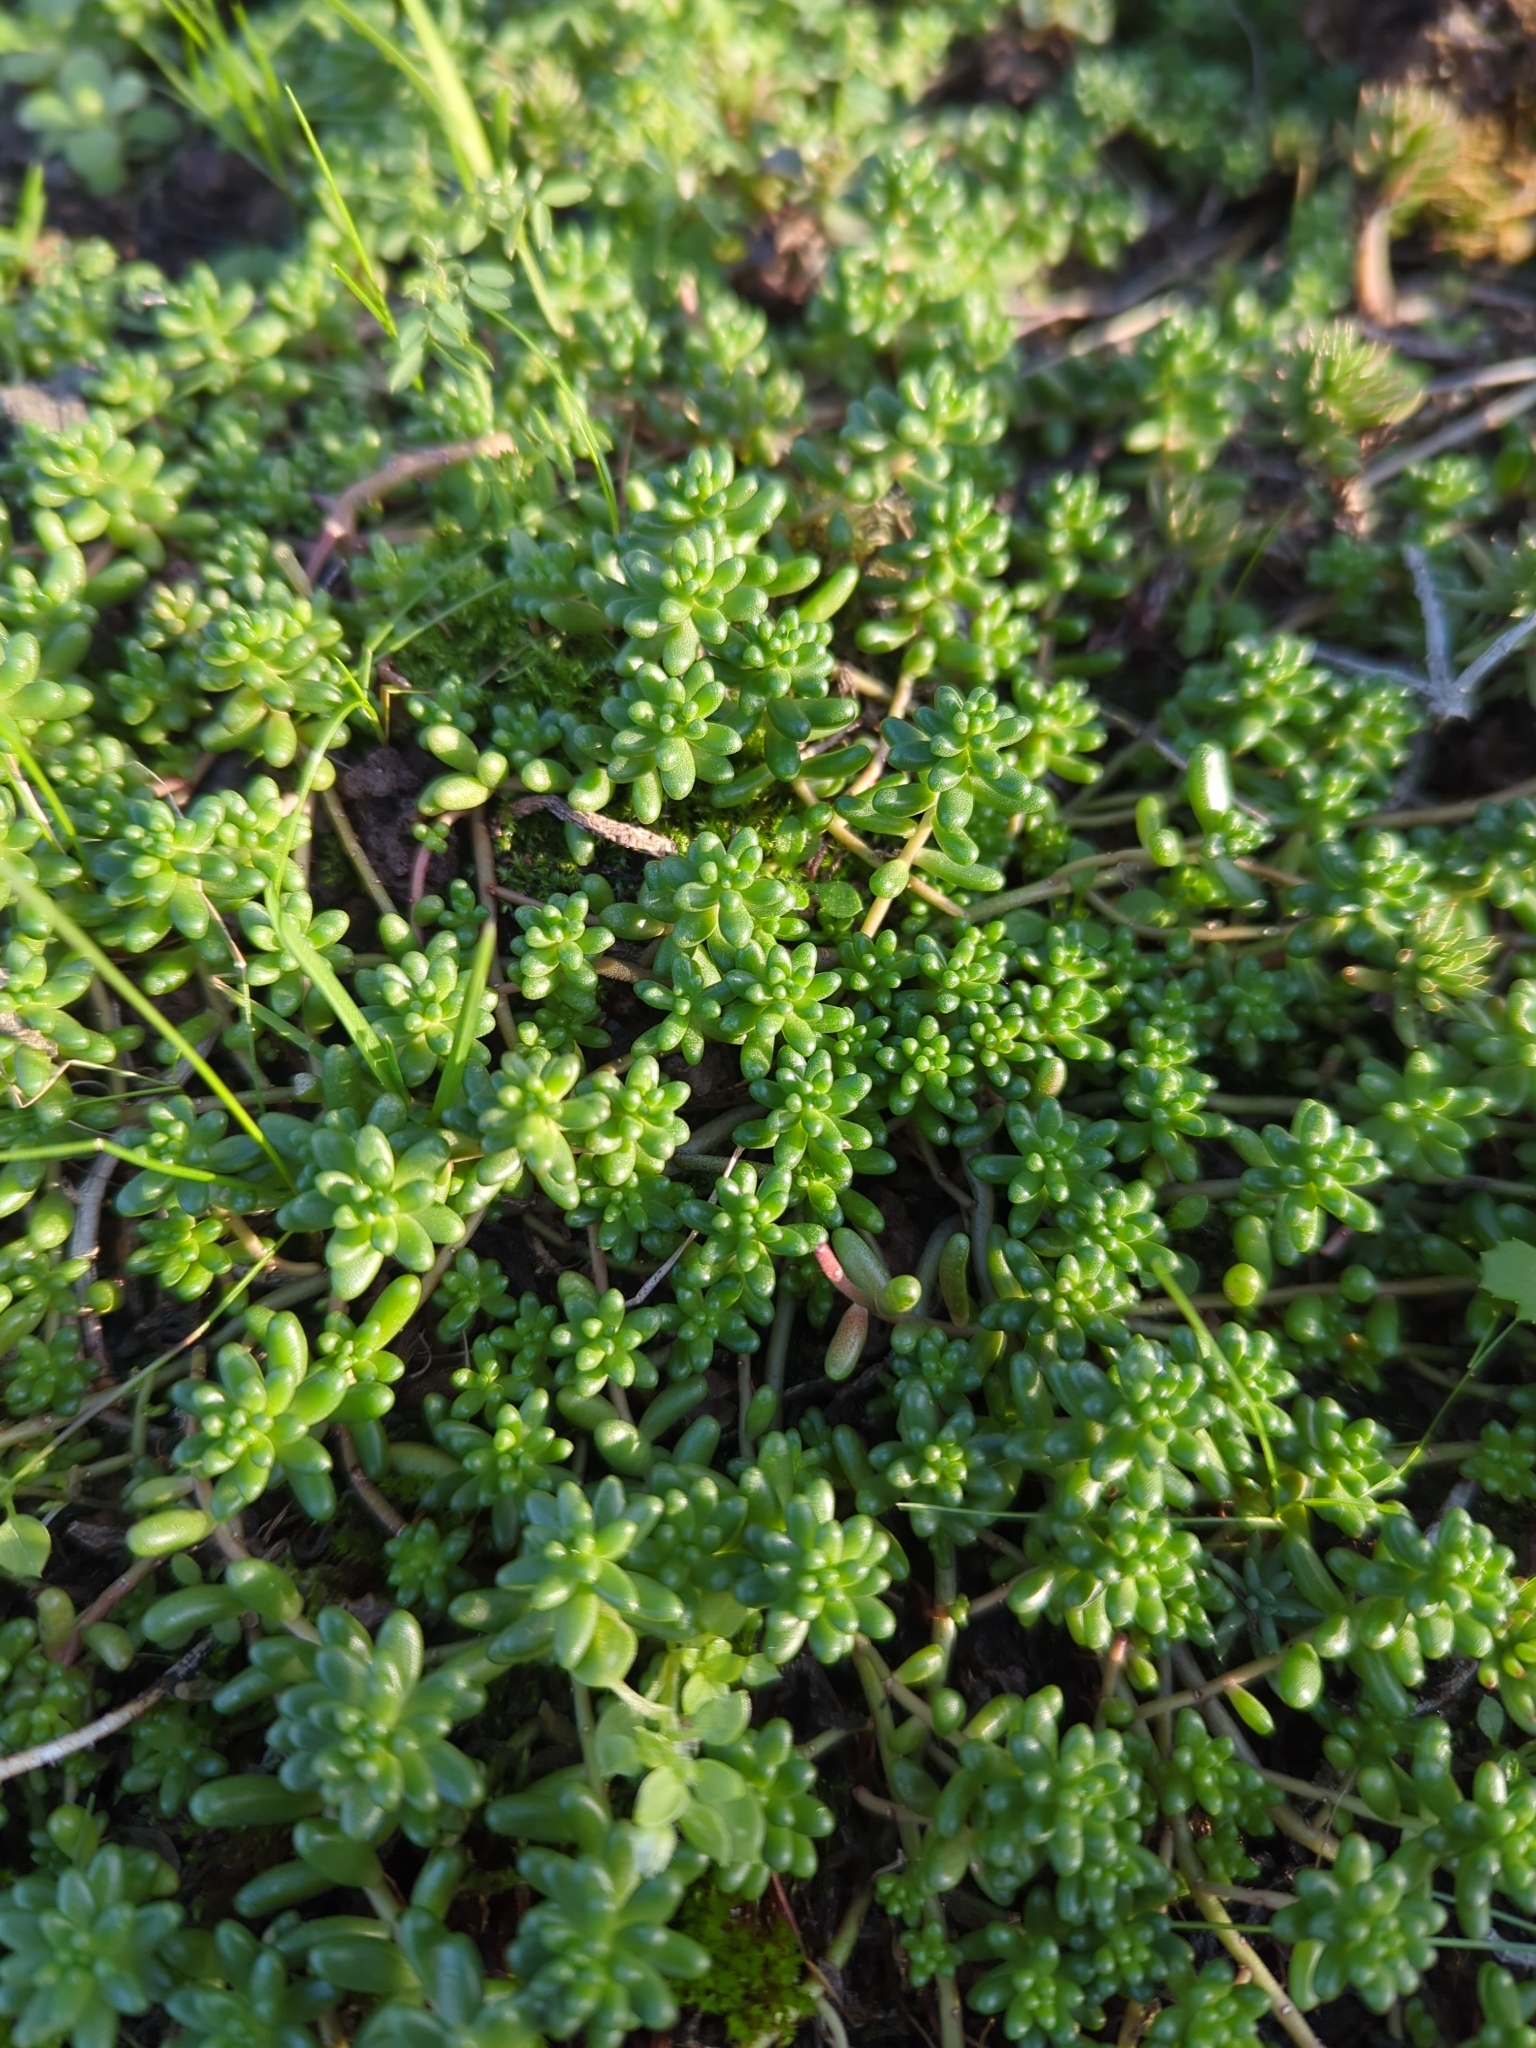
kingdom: Plantae
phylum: Tracheophyta
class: Magnoliopsida
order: Saxifragales
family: Crassulaceae
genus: Sedum
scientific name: Sedum album
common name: White stonecrop
